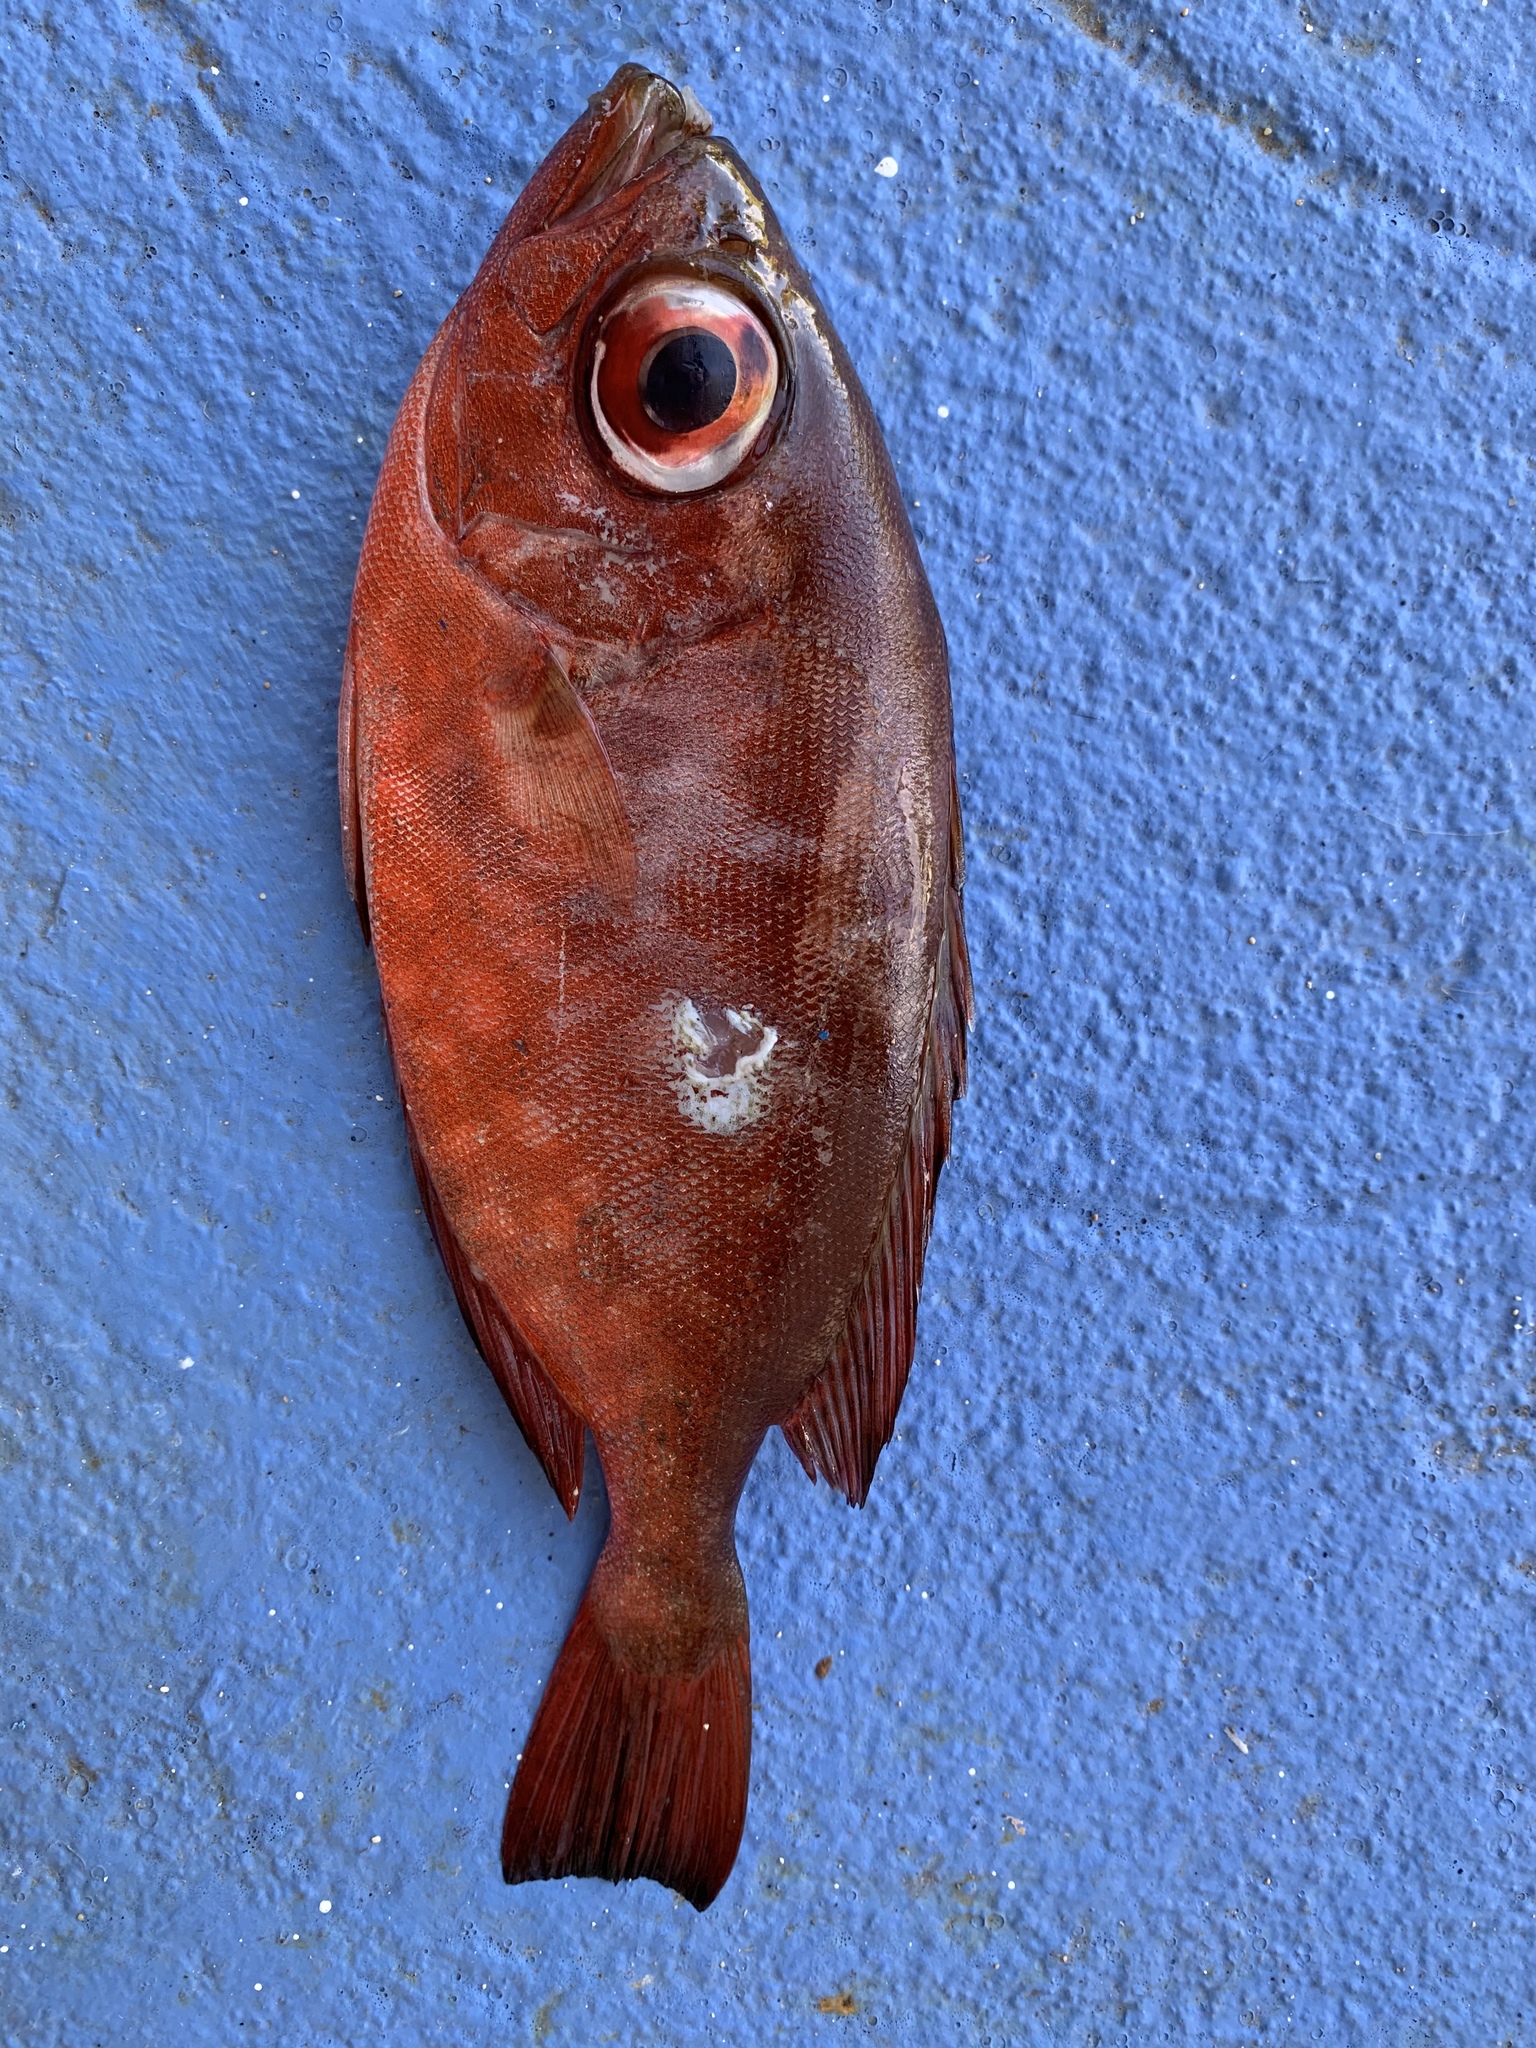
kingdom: Animalia
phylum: Chordata
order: Perciformes
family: Priacanthidae
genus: Heteropriacanthus
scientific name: Heteropriacanthus cruentatus
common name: Glasseye
